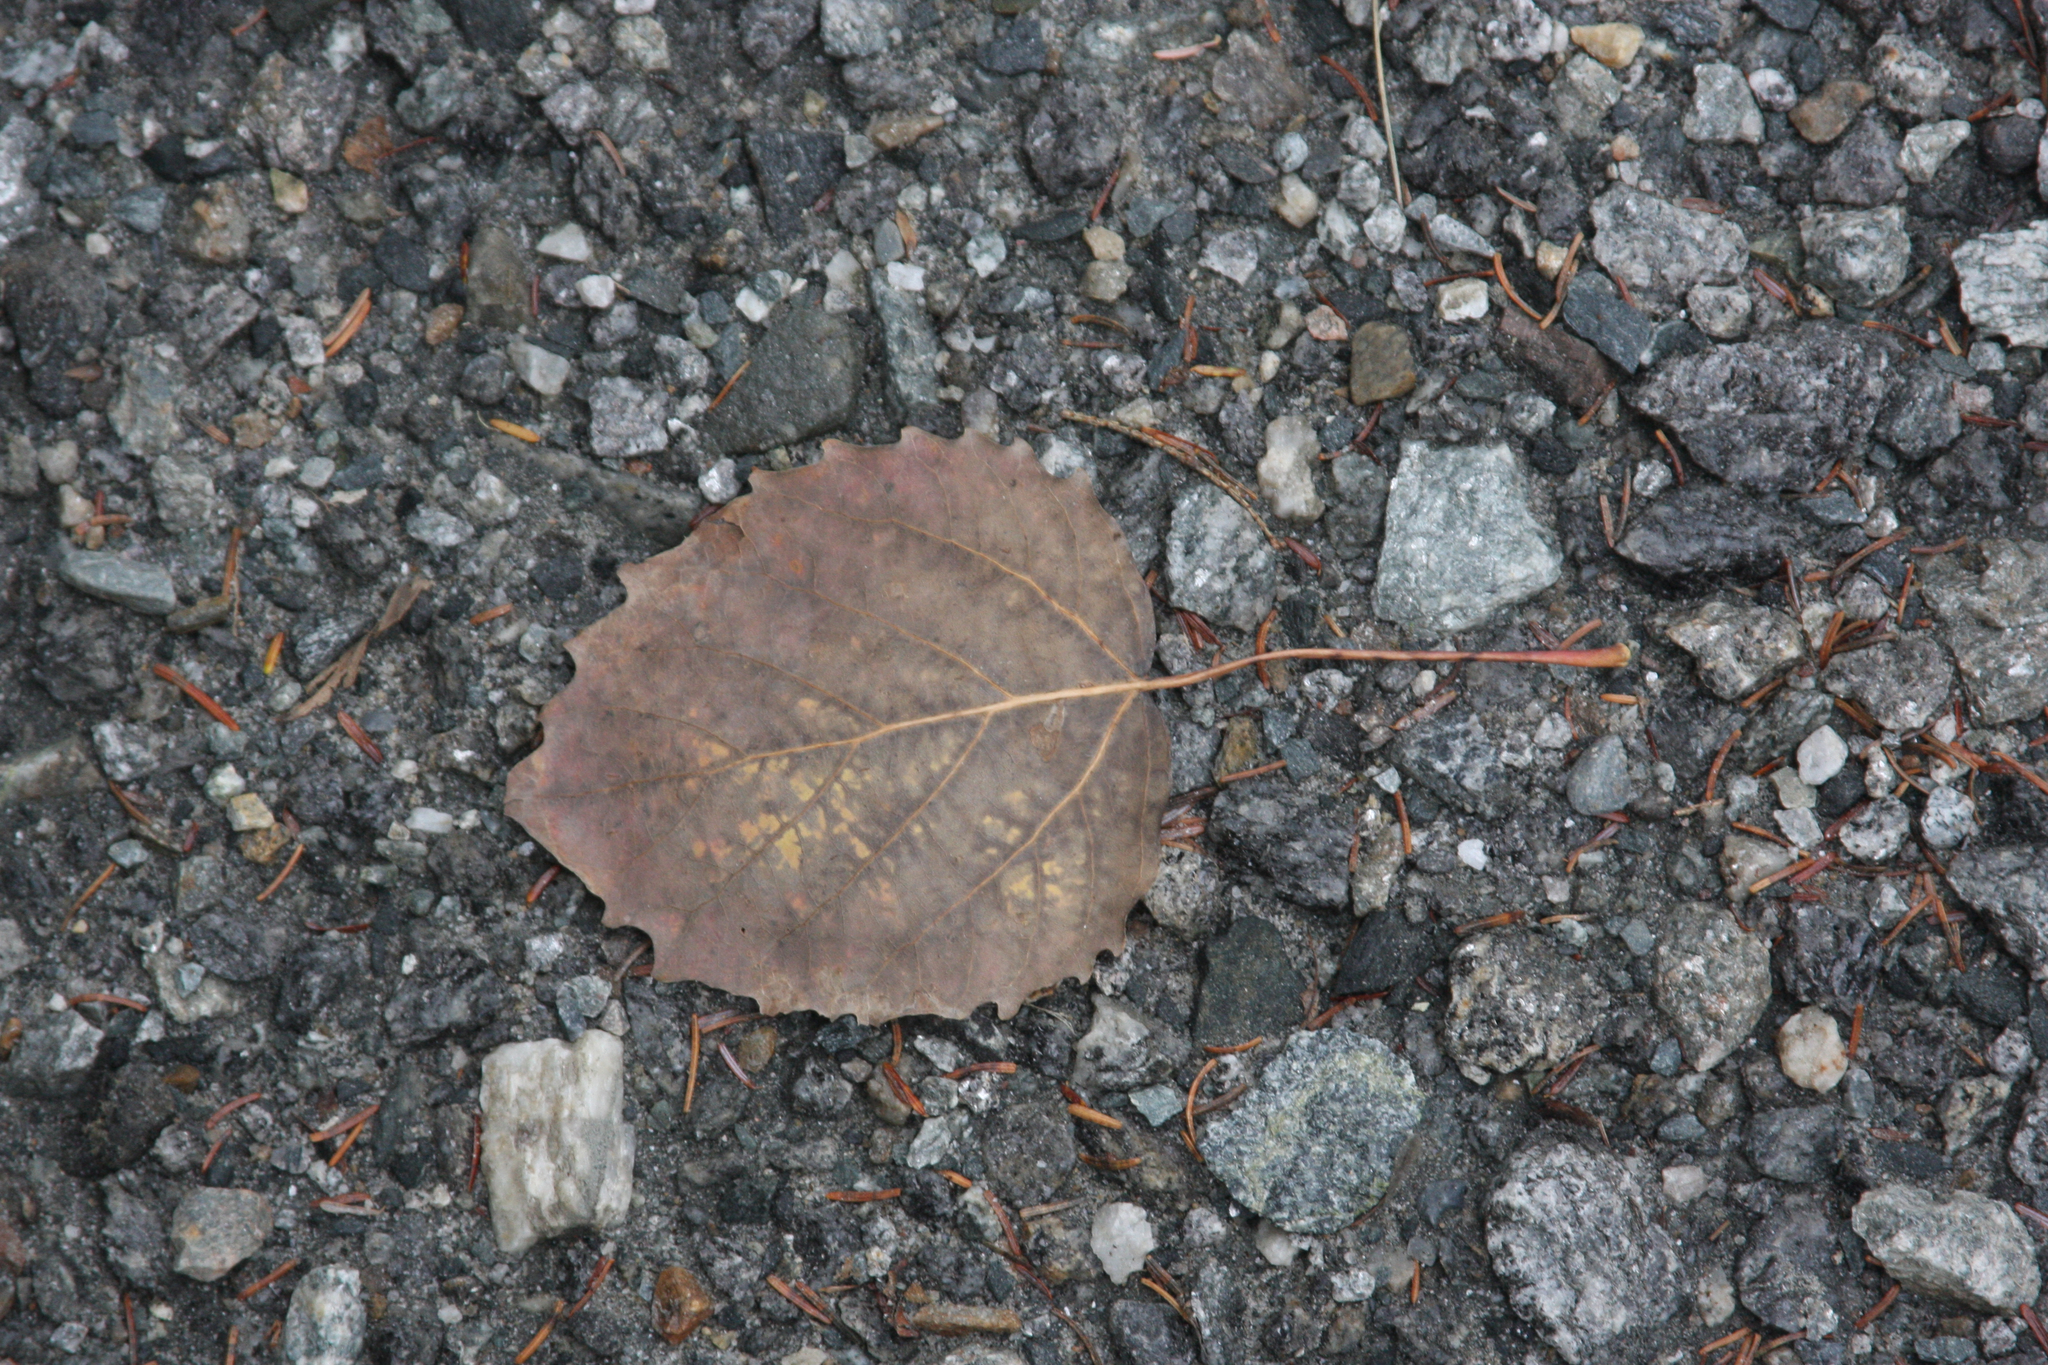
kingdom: Plantae
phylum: Tracheophyta
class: Magnoliopsida
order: Malpighiales
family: Salicaceae
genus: Populus
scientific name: Populus grandidentata
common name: Bigtooth aspen
